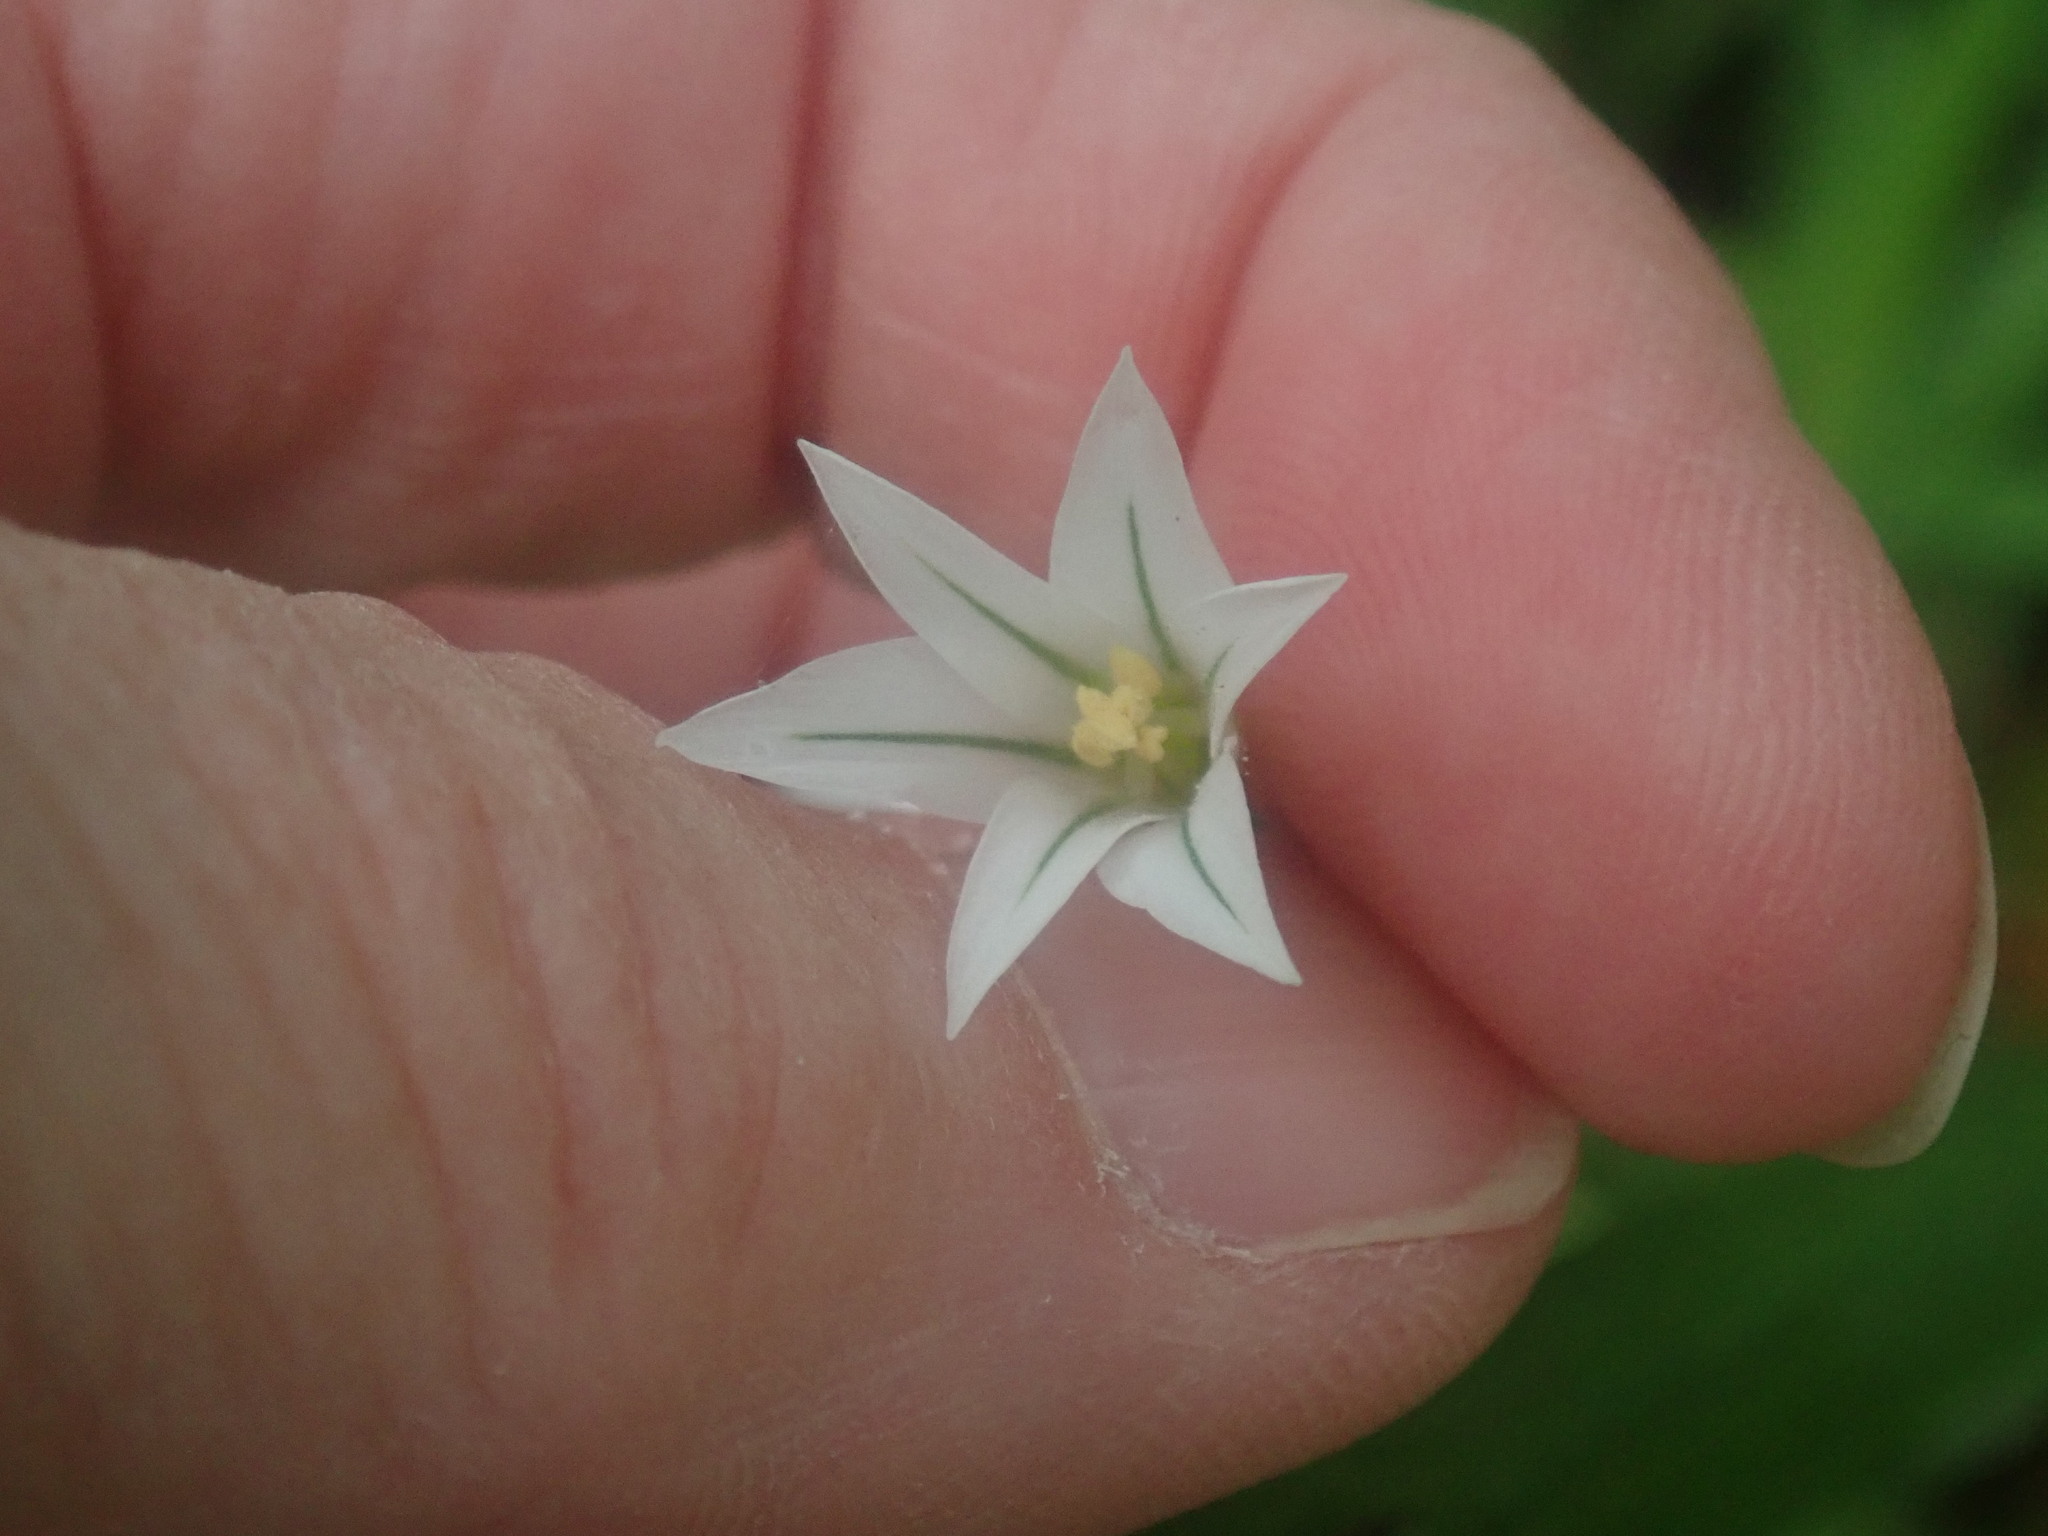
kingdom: Plantae
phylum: Tracheophyta
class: Liliopsida
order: Asparagales
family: Amaryllidaceae
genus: Allium
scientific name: Allium triquetrum
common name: Three-cornered garlic
